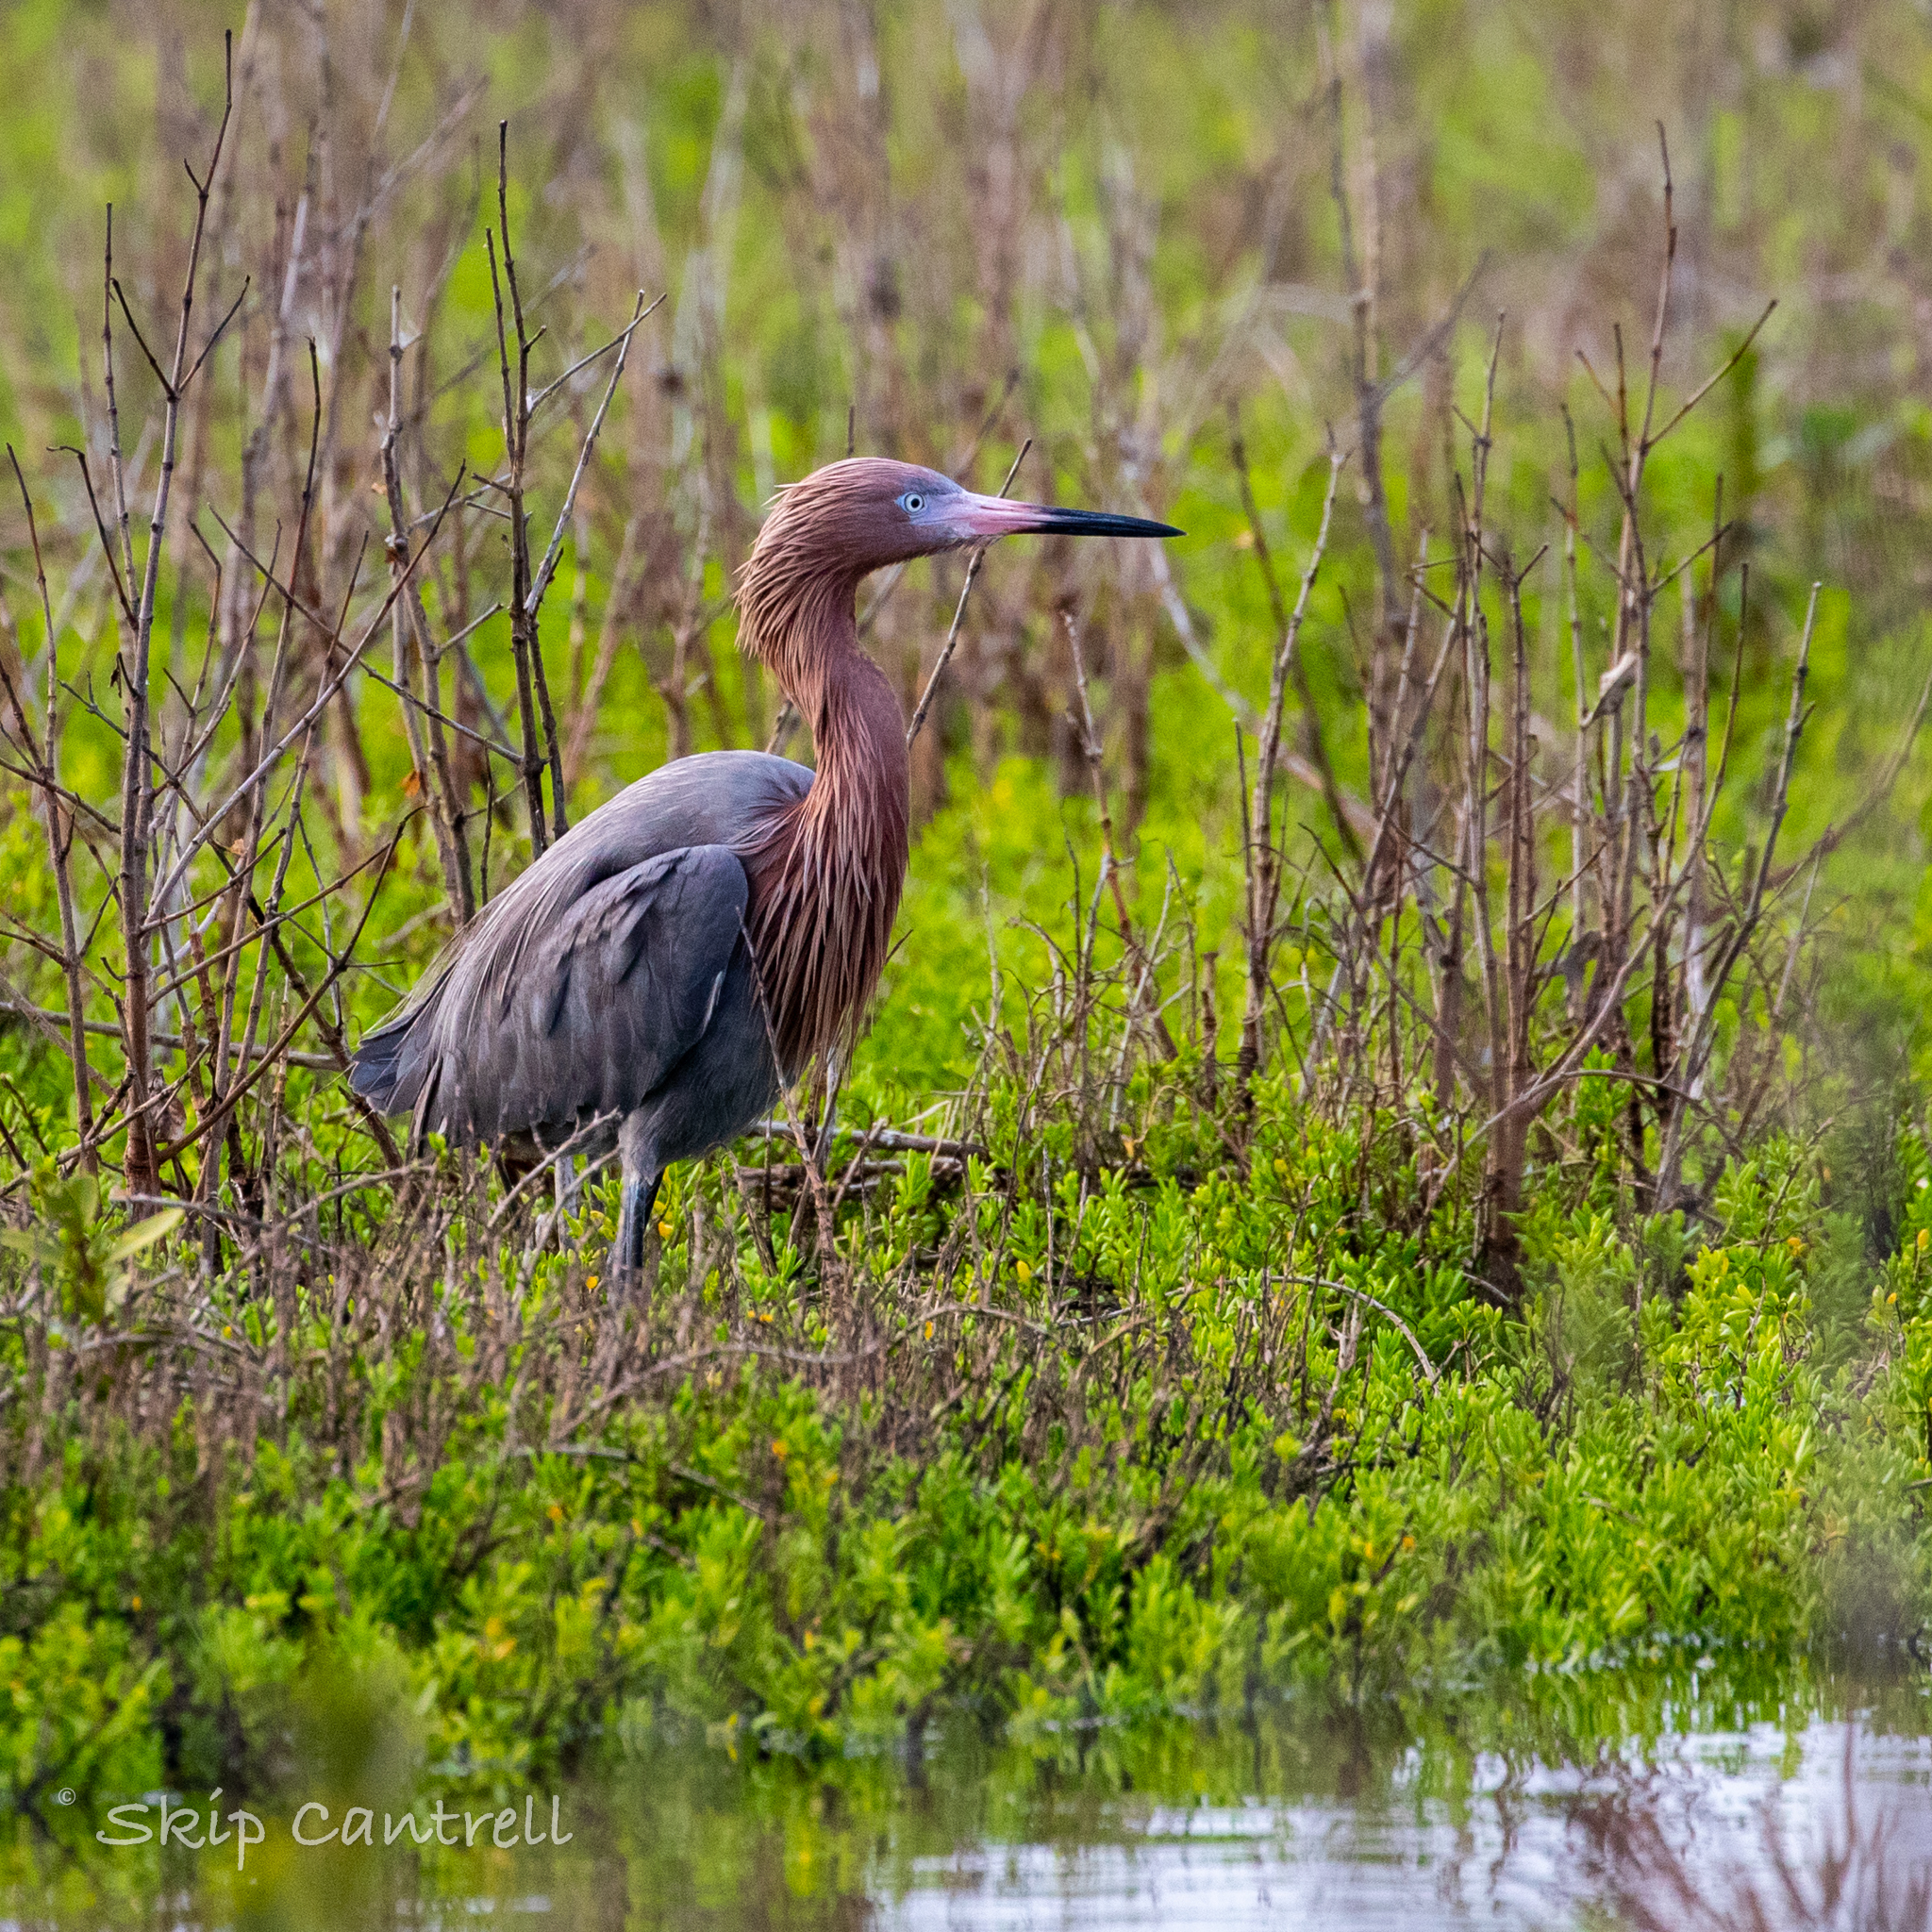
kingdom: Animalia
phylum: Chordata
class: Aves
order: Pelecaniformes
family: Ardeidae
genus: Egretta
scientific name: Egretta rufescens
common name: Reddish egret
